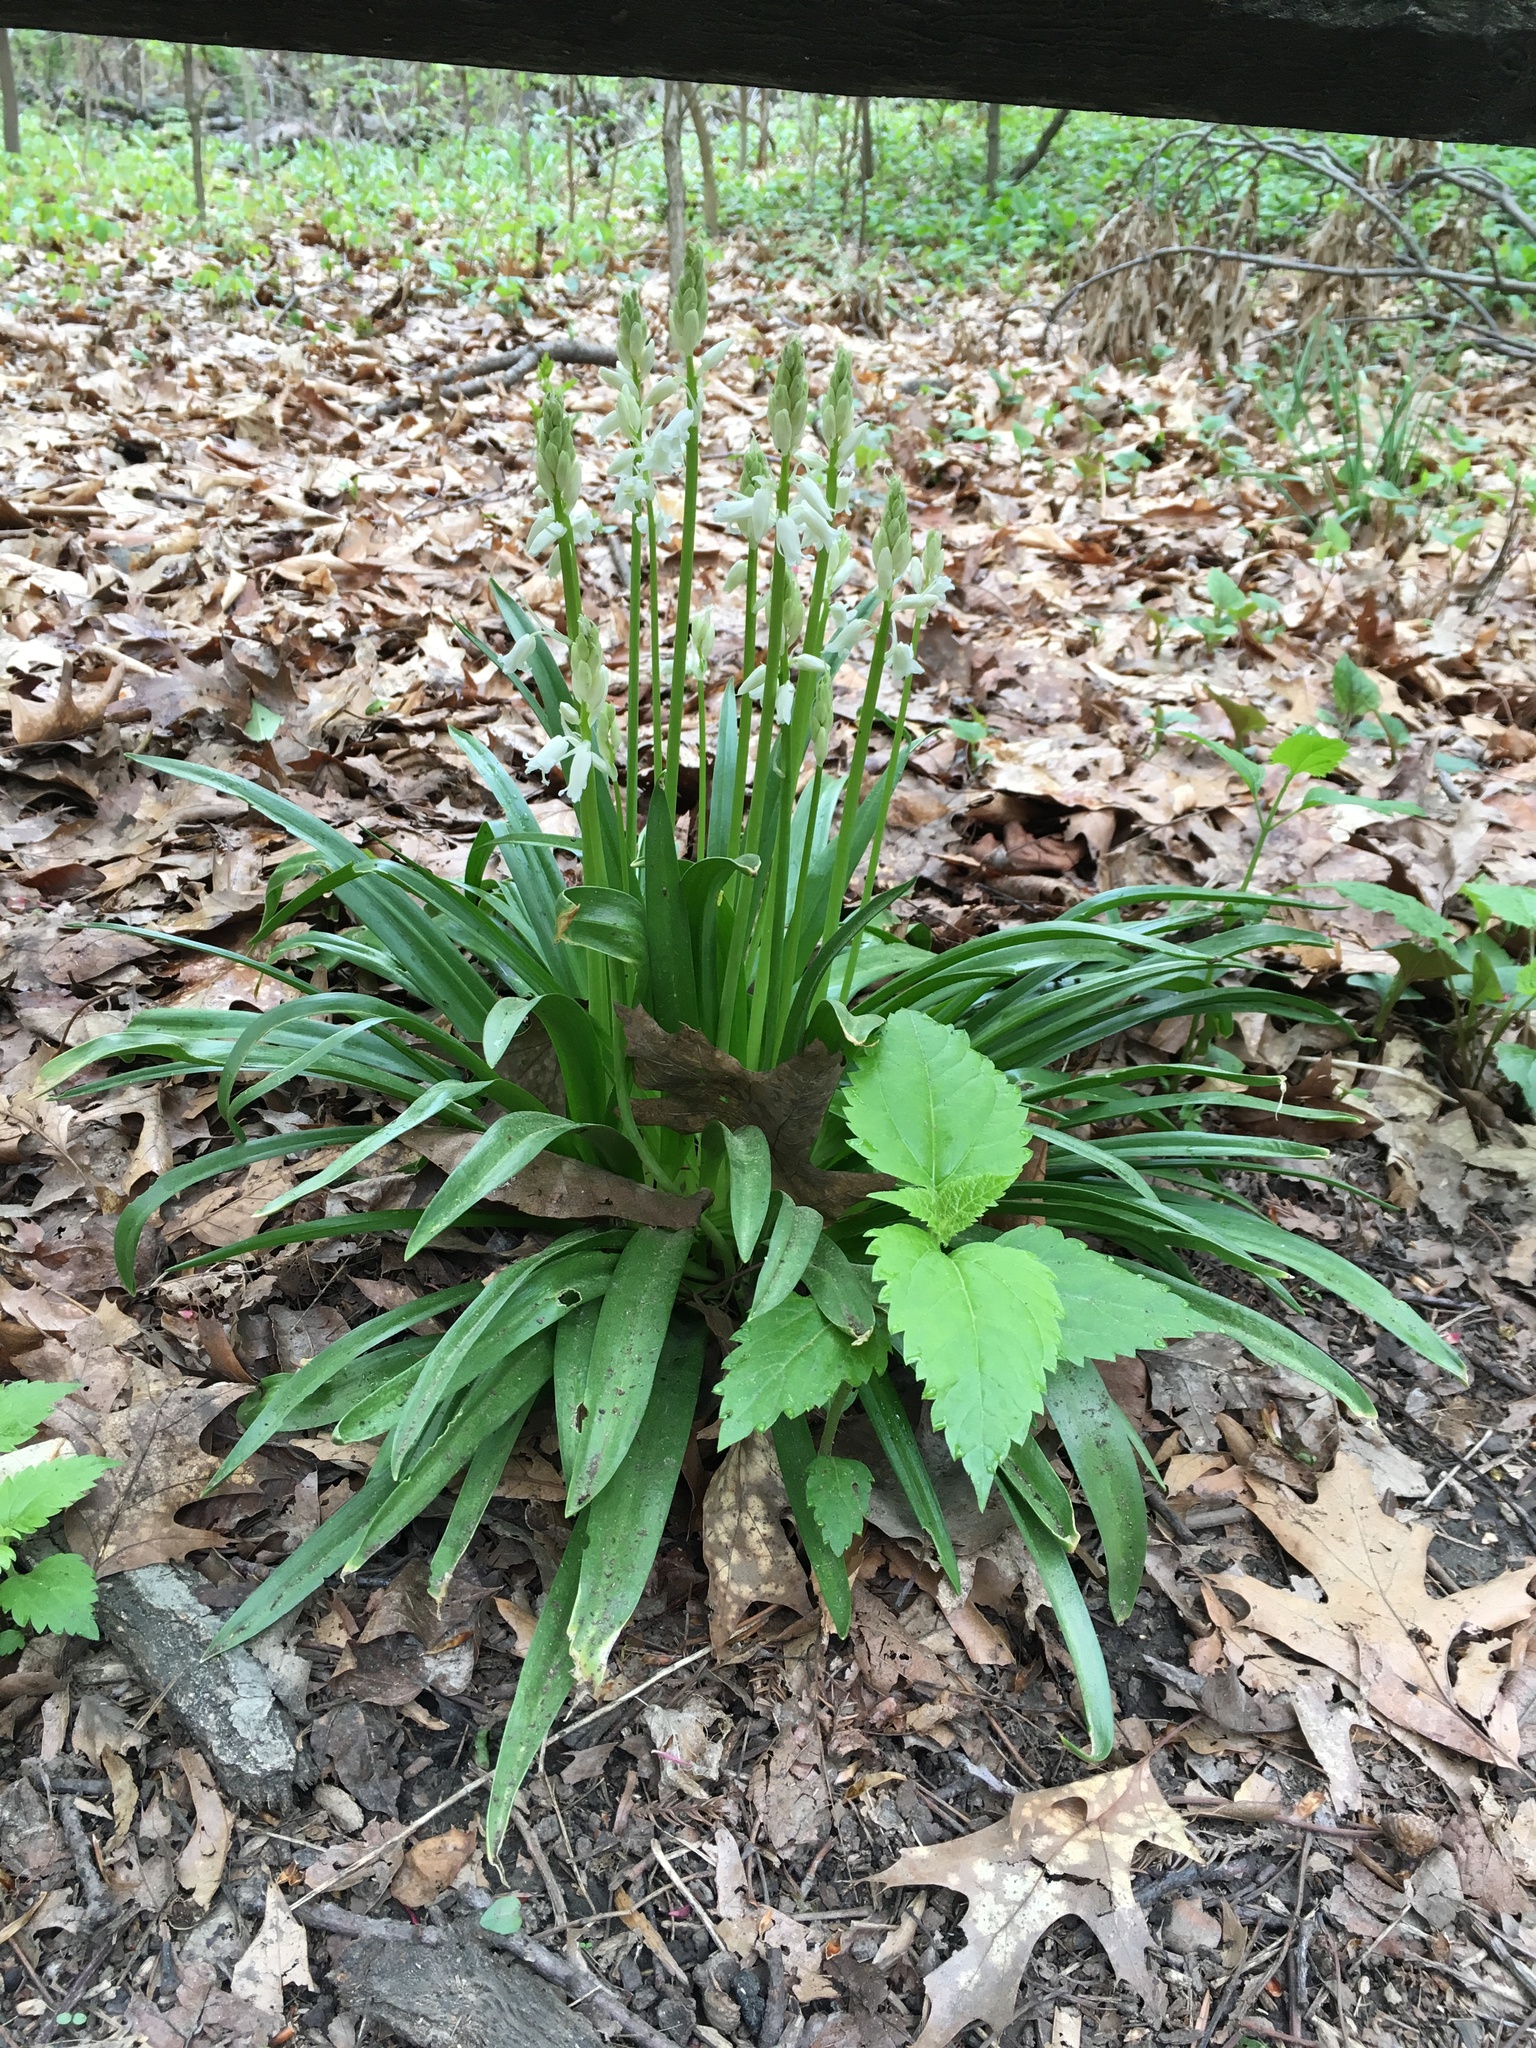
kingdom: Plantae
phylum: Tracheophyta
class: Liliopsida
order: Asparagales
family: Asparagaceae
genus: Hyacinthoides
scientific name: Hyacinthoides hispanica
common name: Spanish bluebell
